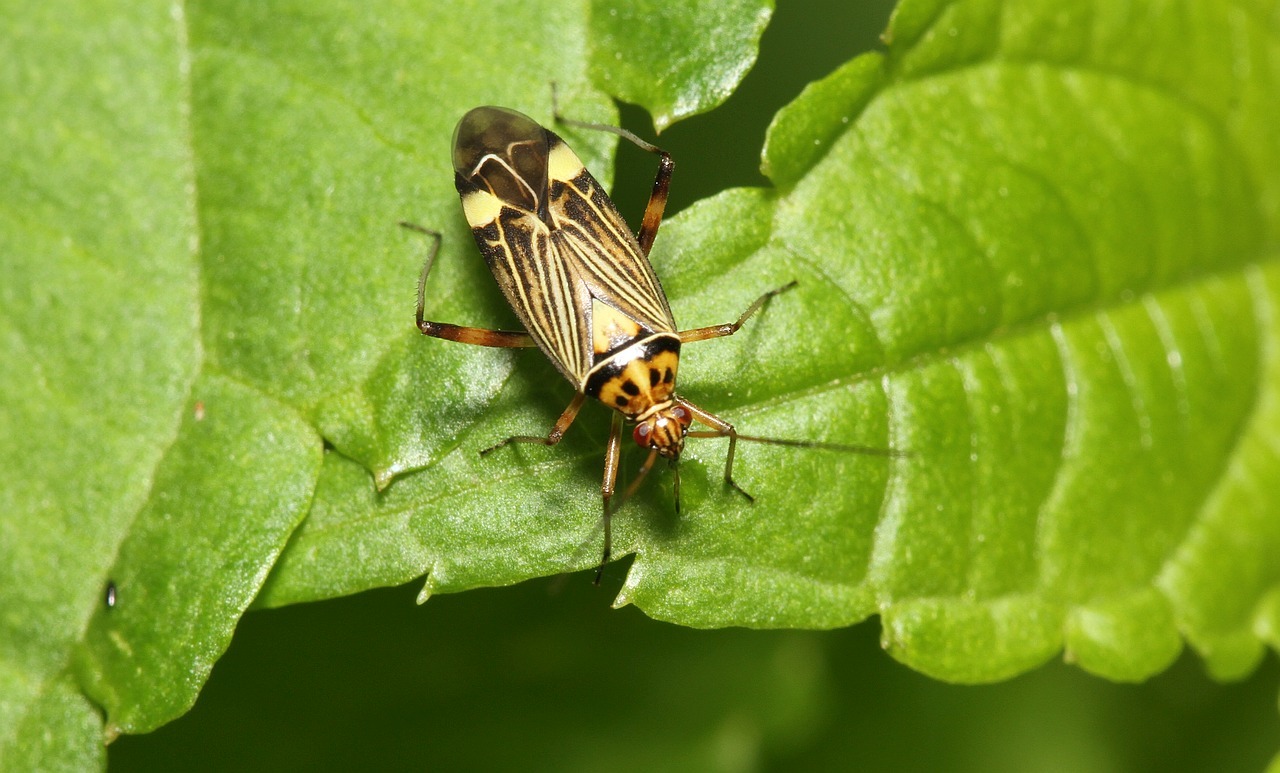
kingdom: Animalia
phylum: Arthropoda
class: Insecta
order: Hemiptera
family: Miridae
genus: Rhabdomiris
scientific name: Rhabdomiris striatellus
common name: Plant bug
